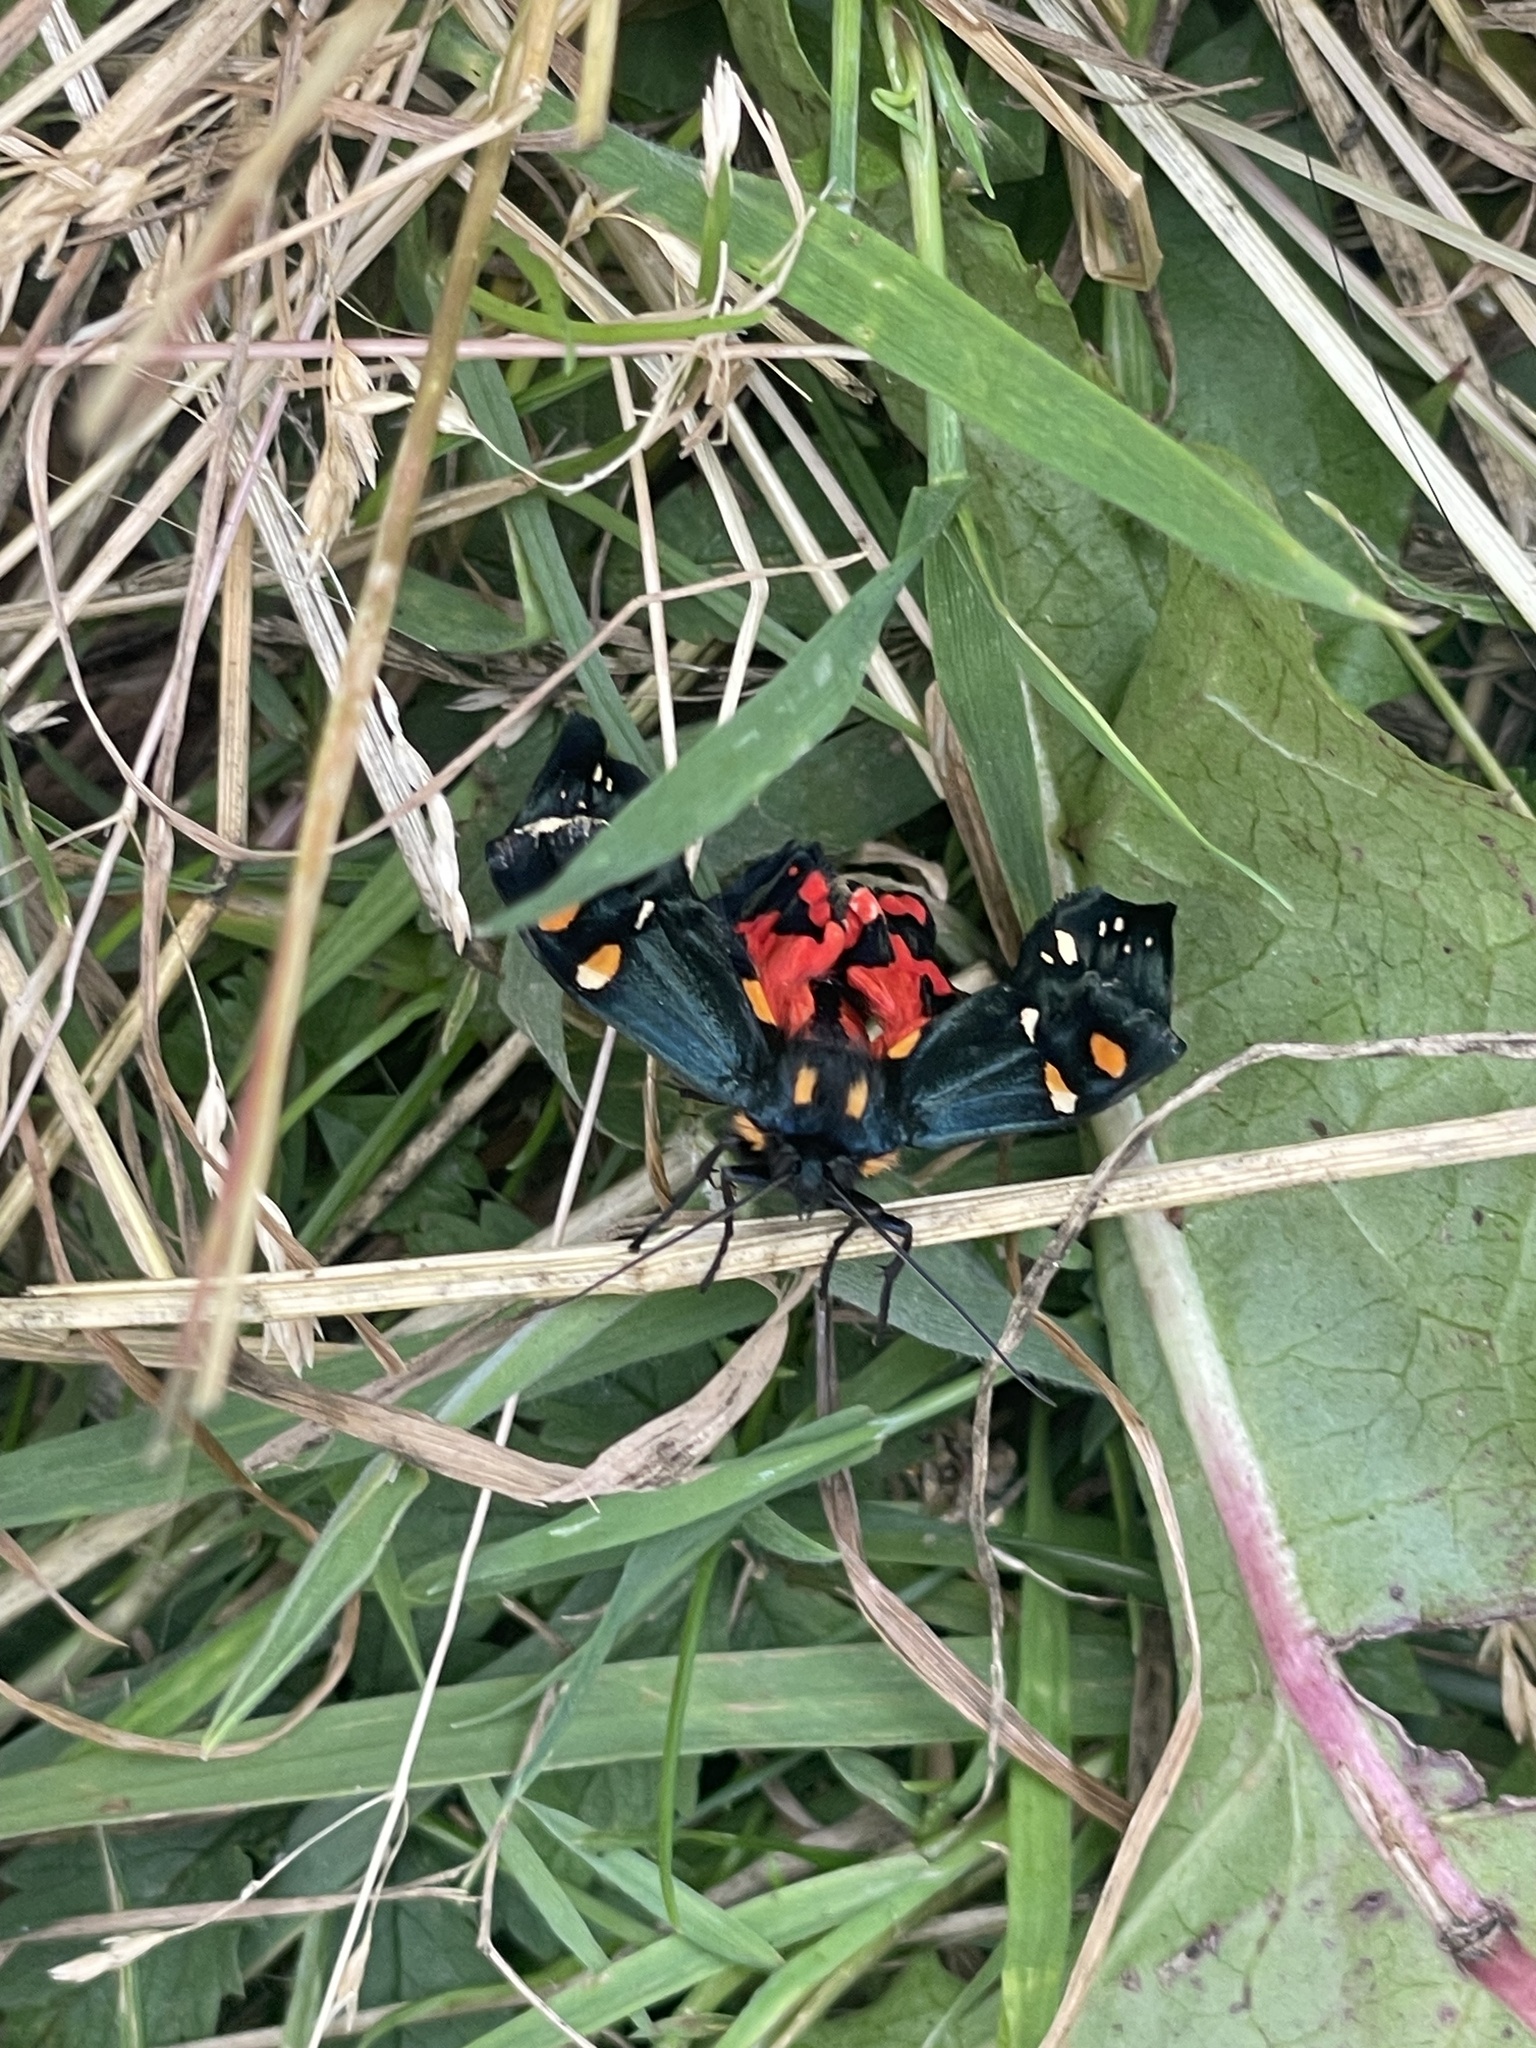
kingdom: Animalia
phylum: Arthropoda
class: Insecta
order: Lepidoptera
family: Erebidae
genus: Callimorpha
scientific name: Callimorpha dominula
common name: Scarlet tiger
